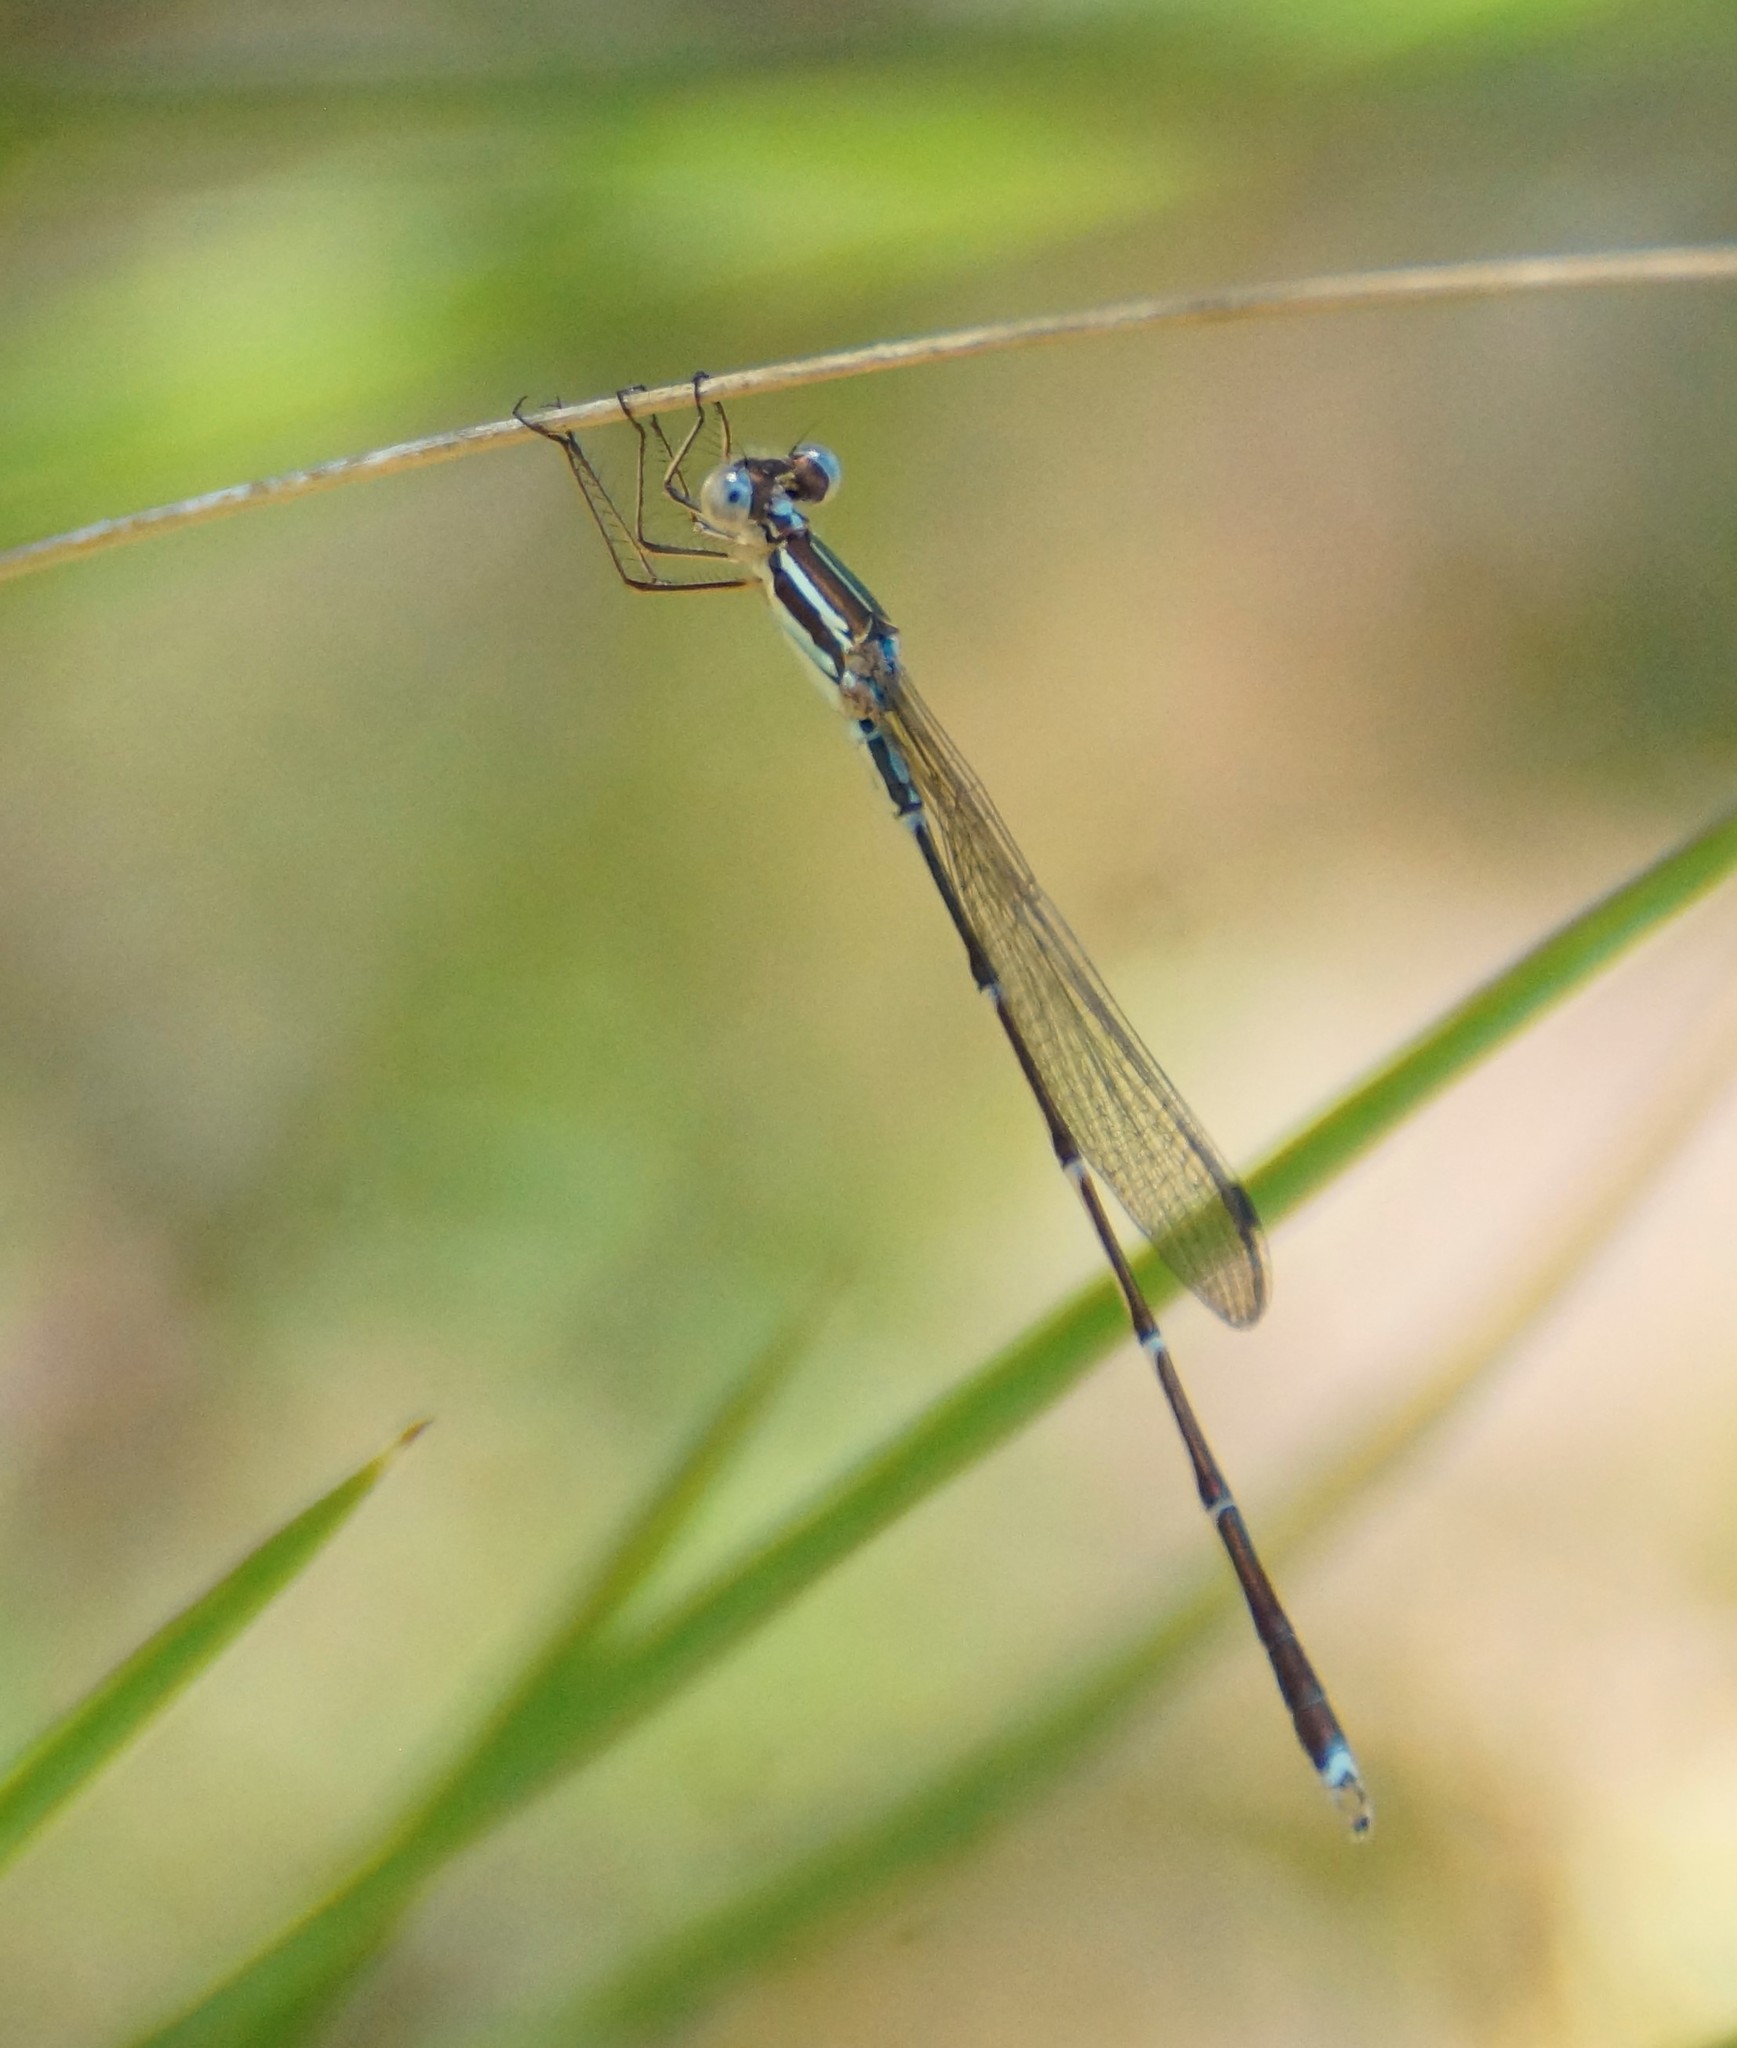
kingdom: Animalia
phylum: Arthropoda
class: Insecta
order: Odonata
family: Lestidae
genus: Austrolestes
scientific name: Austrolestes analis
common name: Slender ringtail
